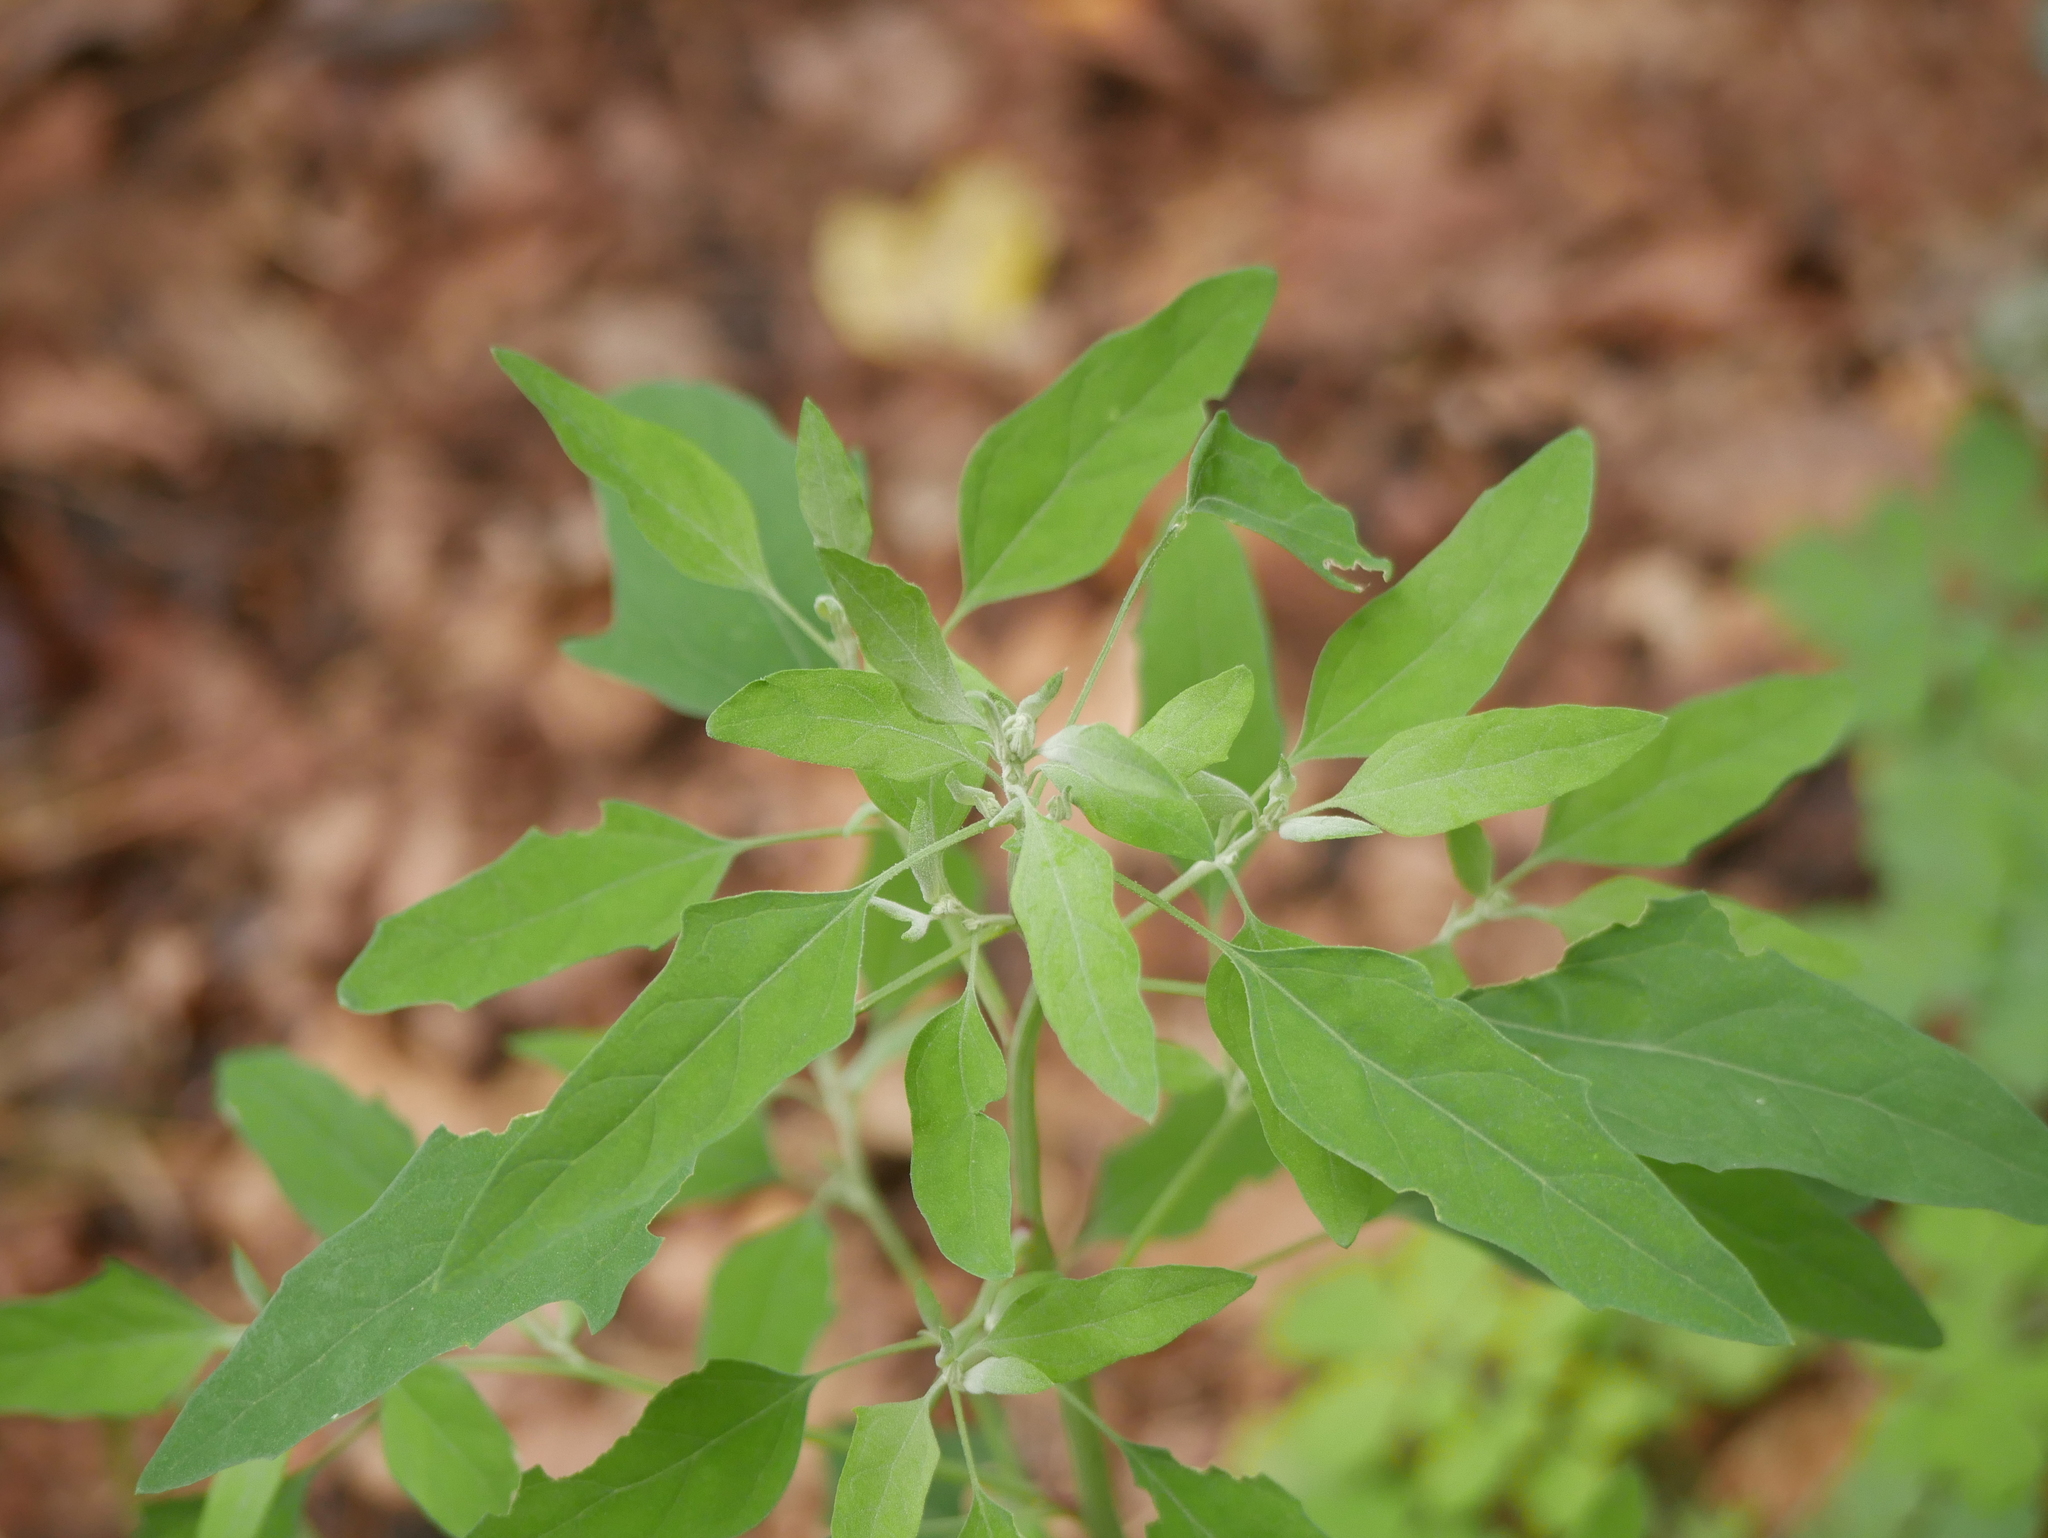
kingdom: Plantae
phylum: Tracheophyta
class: Magnoliopsida
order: Caryophyllales
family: Amaranthaceae
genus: Chenopodium
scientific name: Chenopodium album
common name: Fat-hen
